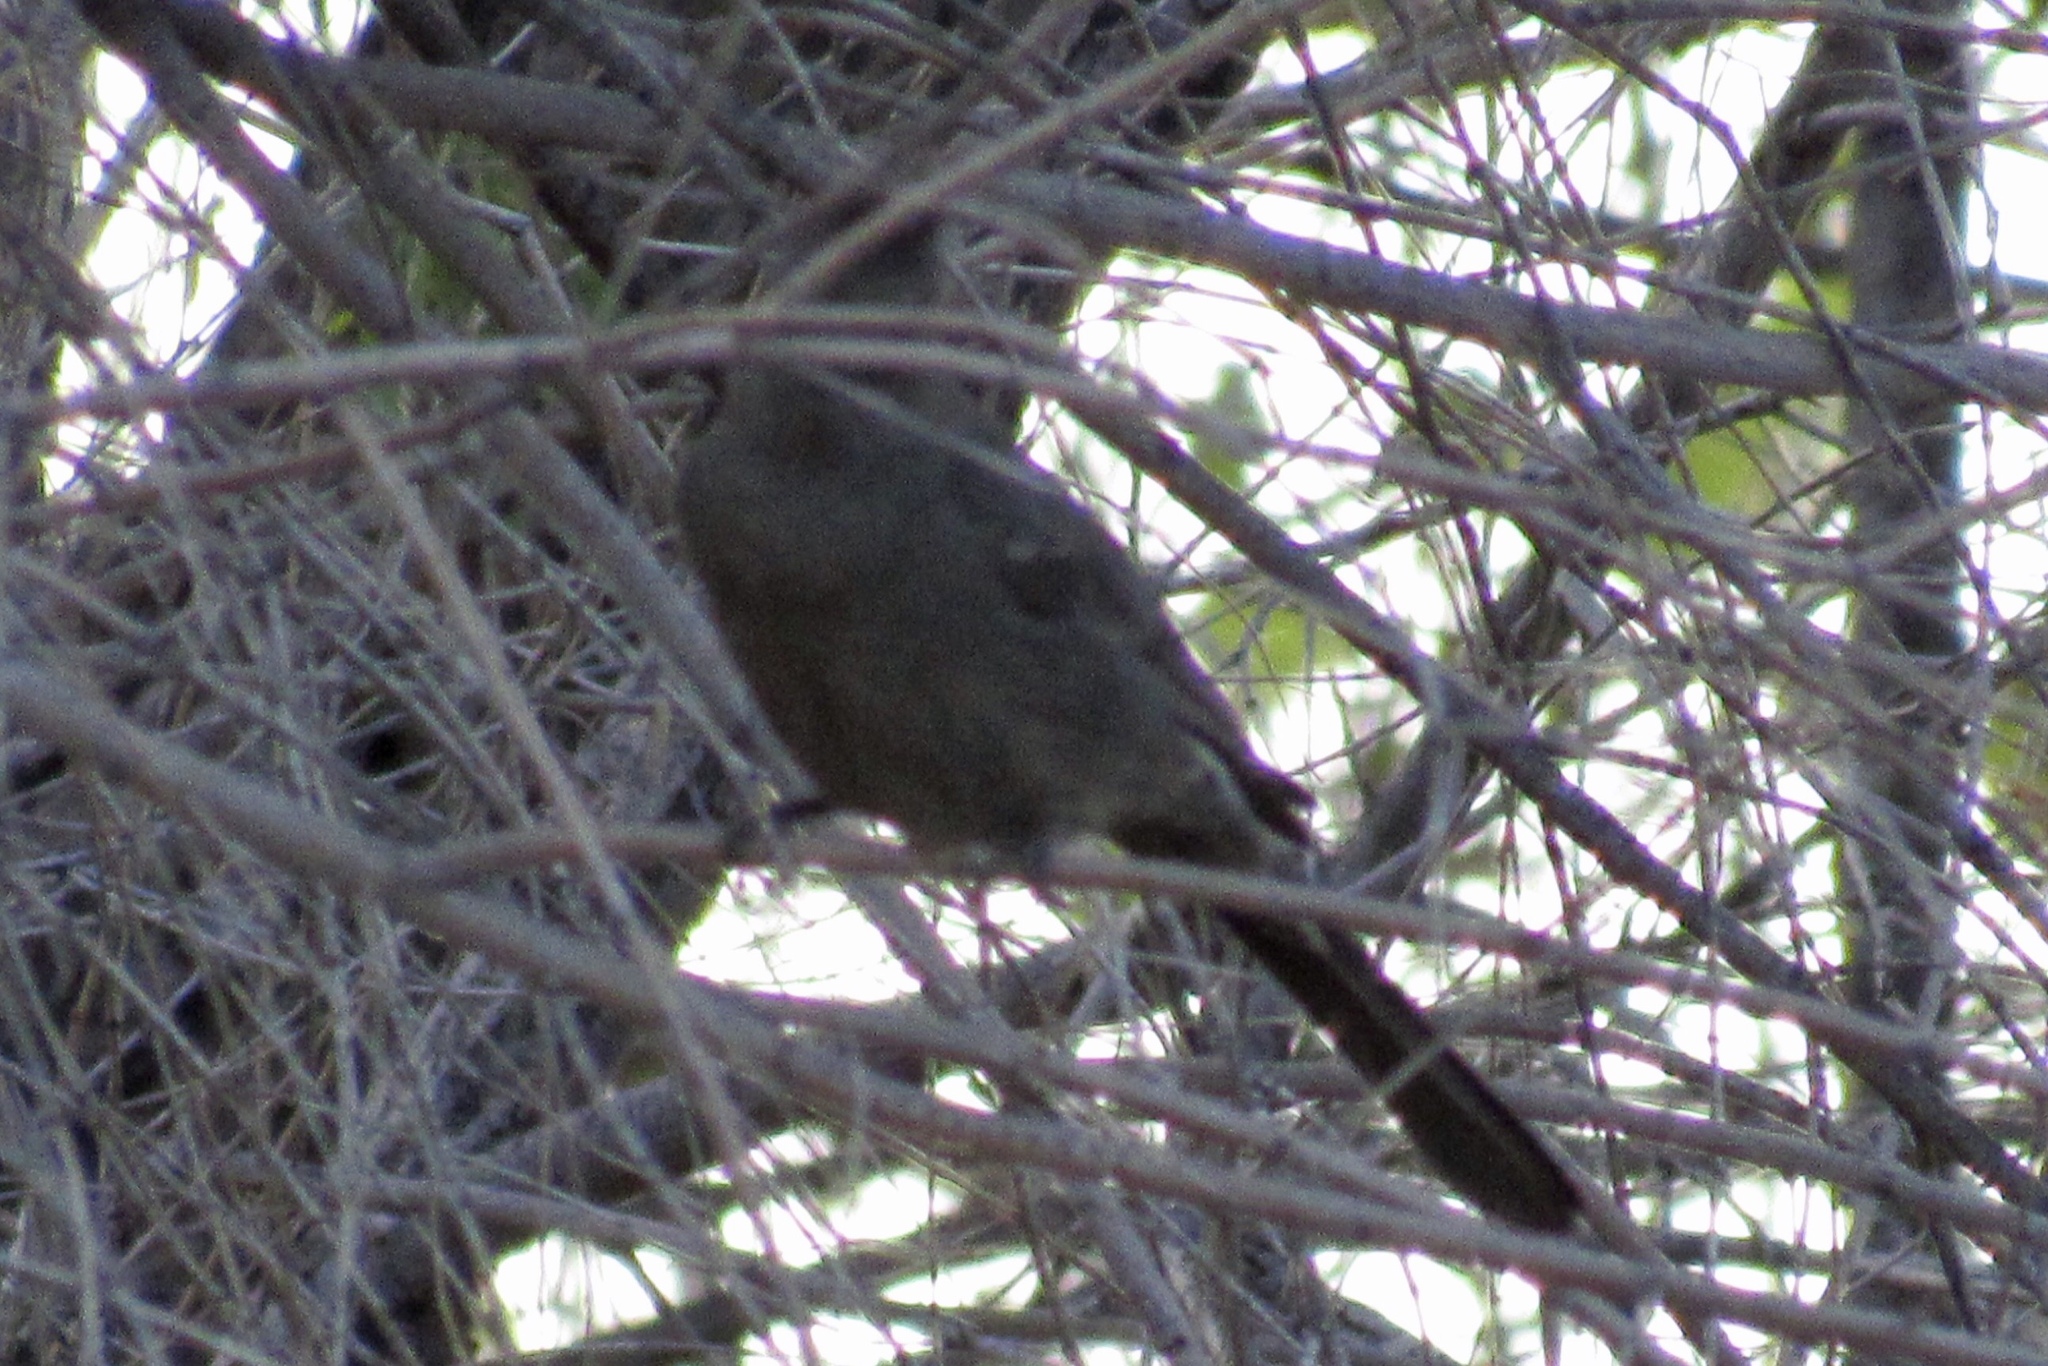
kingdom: Animalia
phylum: Chordata
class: Aves
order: Passeriformes
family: Ptilogonatidae
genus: Phainopepla
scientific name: Phainopepla nitens
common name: Phainopepla
